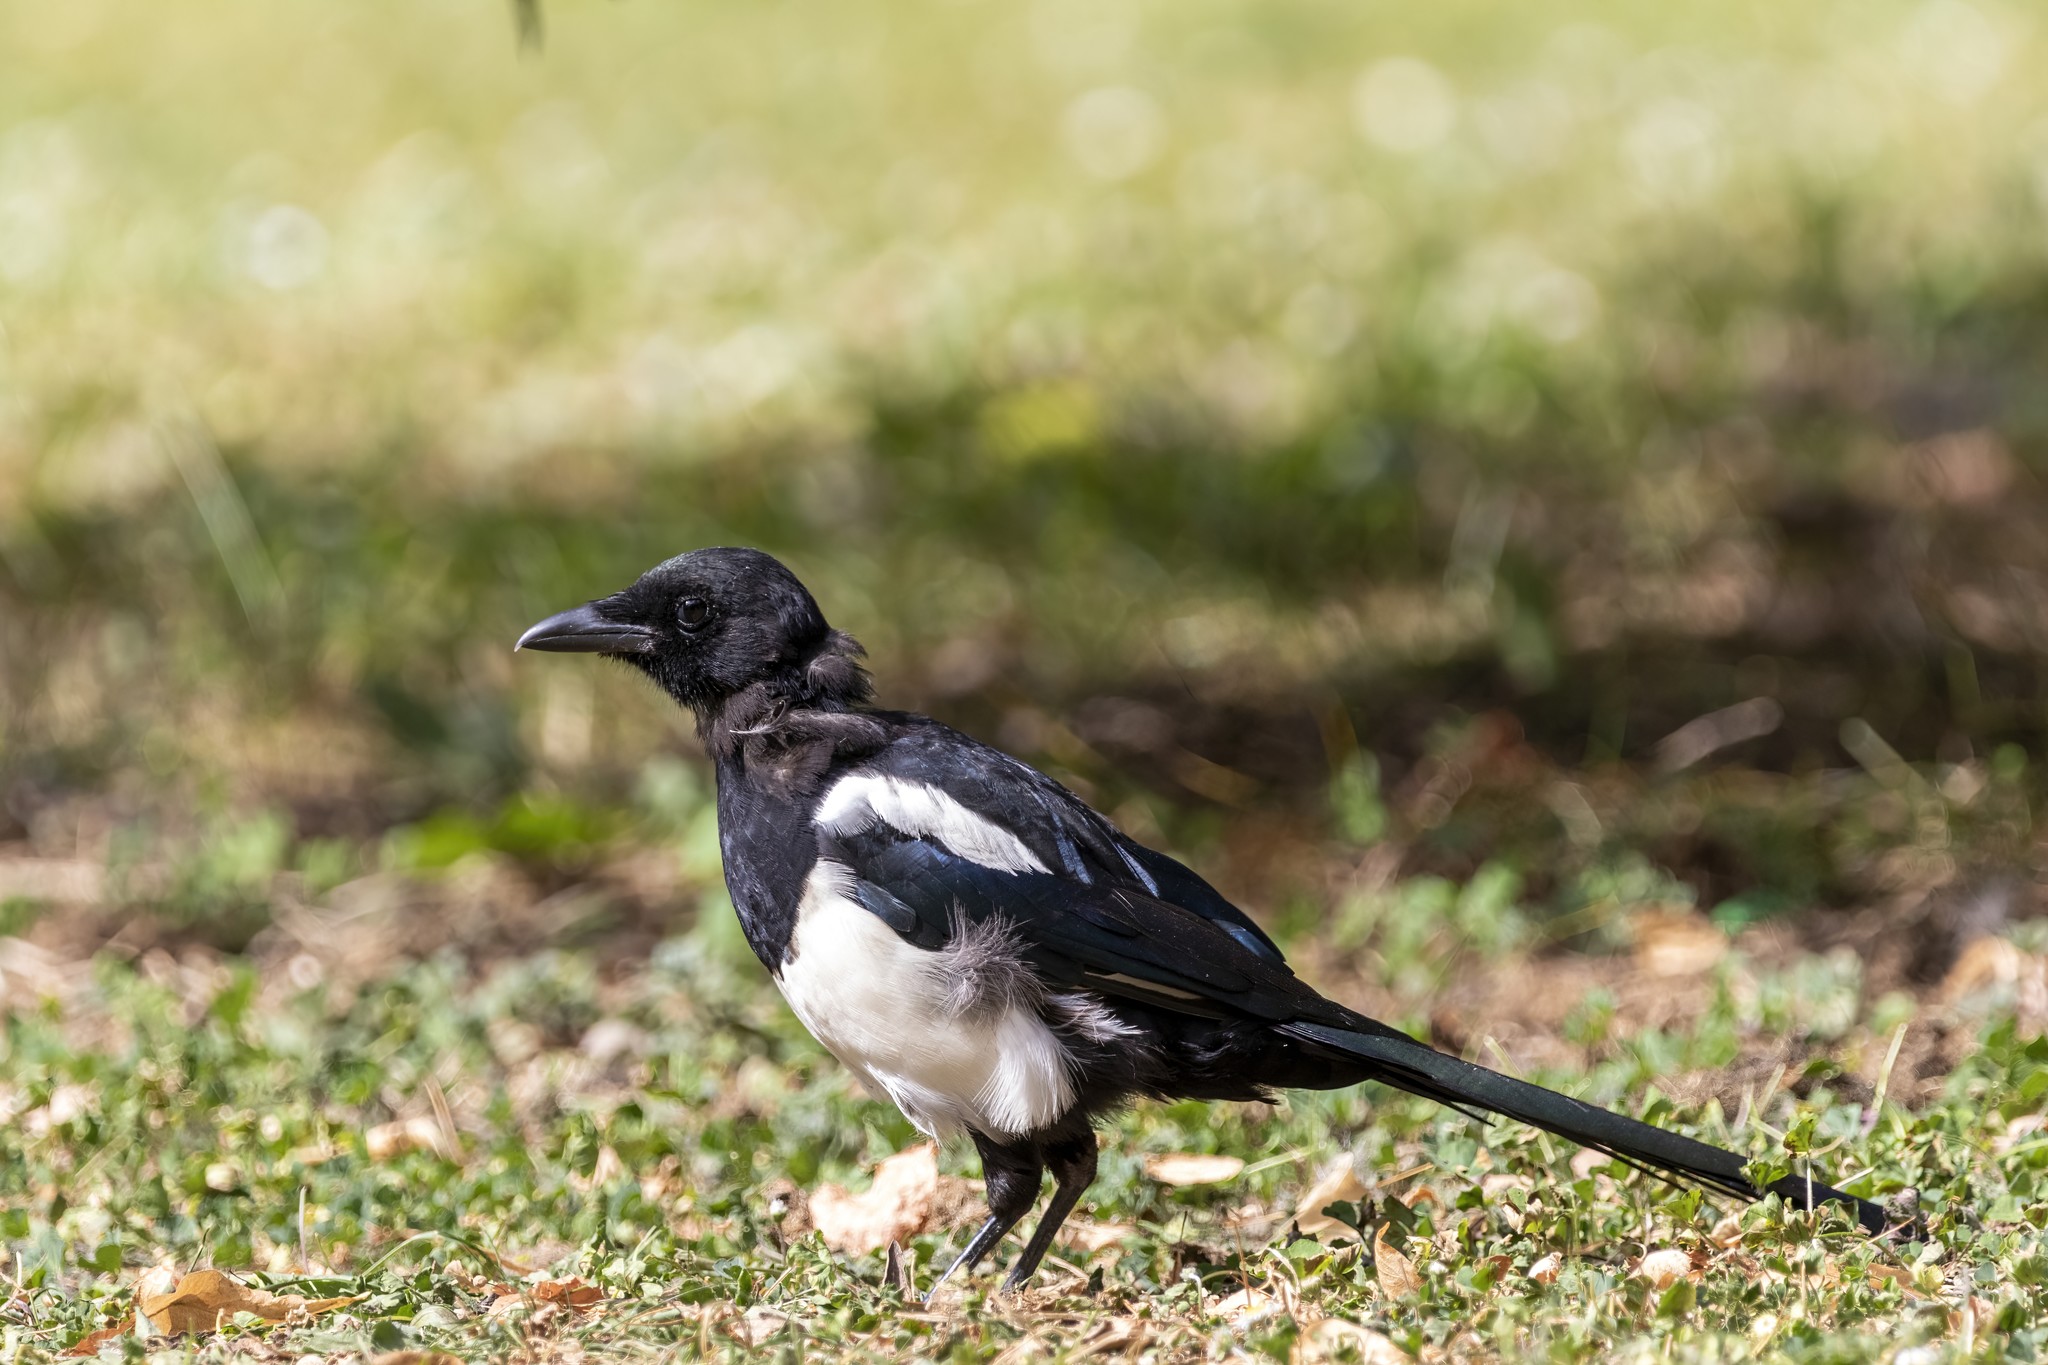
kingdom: Animalia
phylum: Chordata
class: Aves
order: Passeriformes
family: Corvidae
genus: Pica
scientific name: Pica pica
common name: Eurasian magpie
